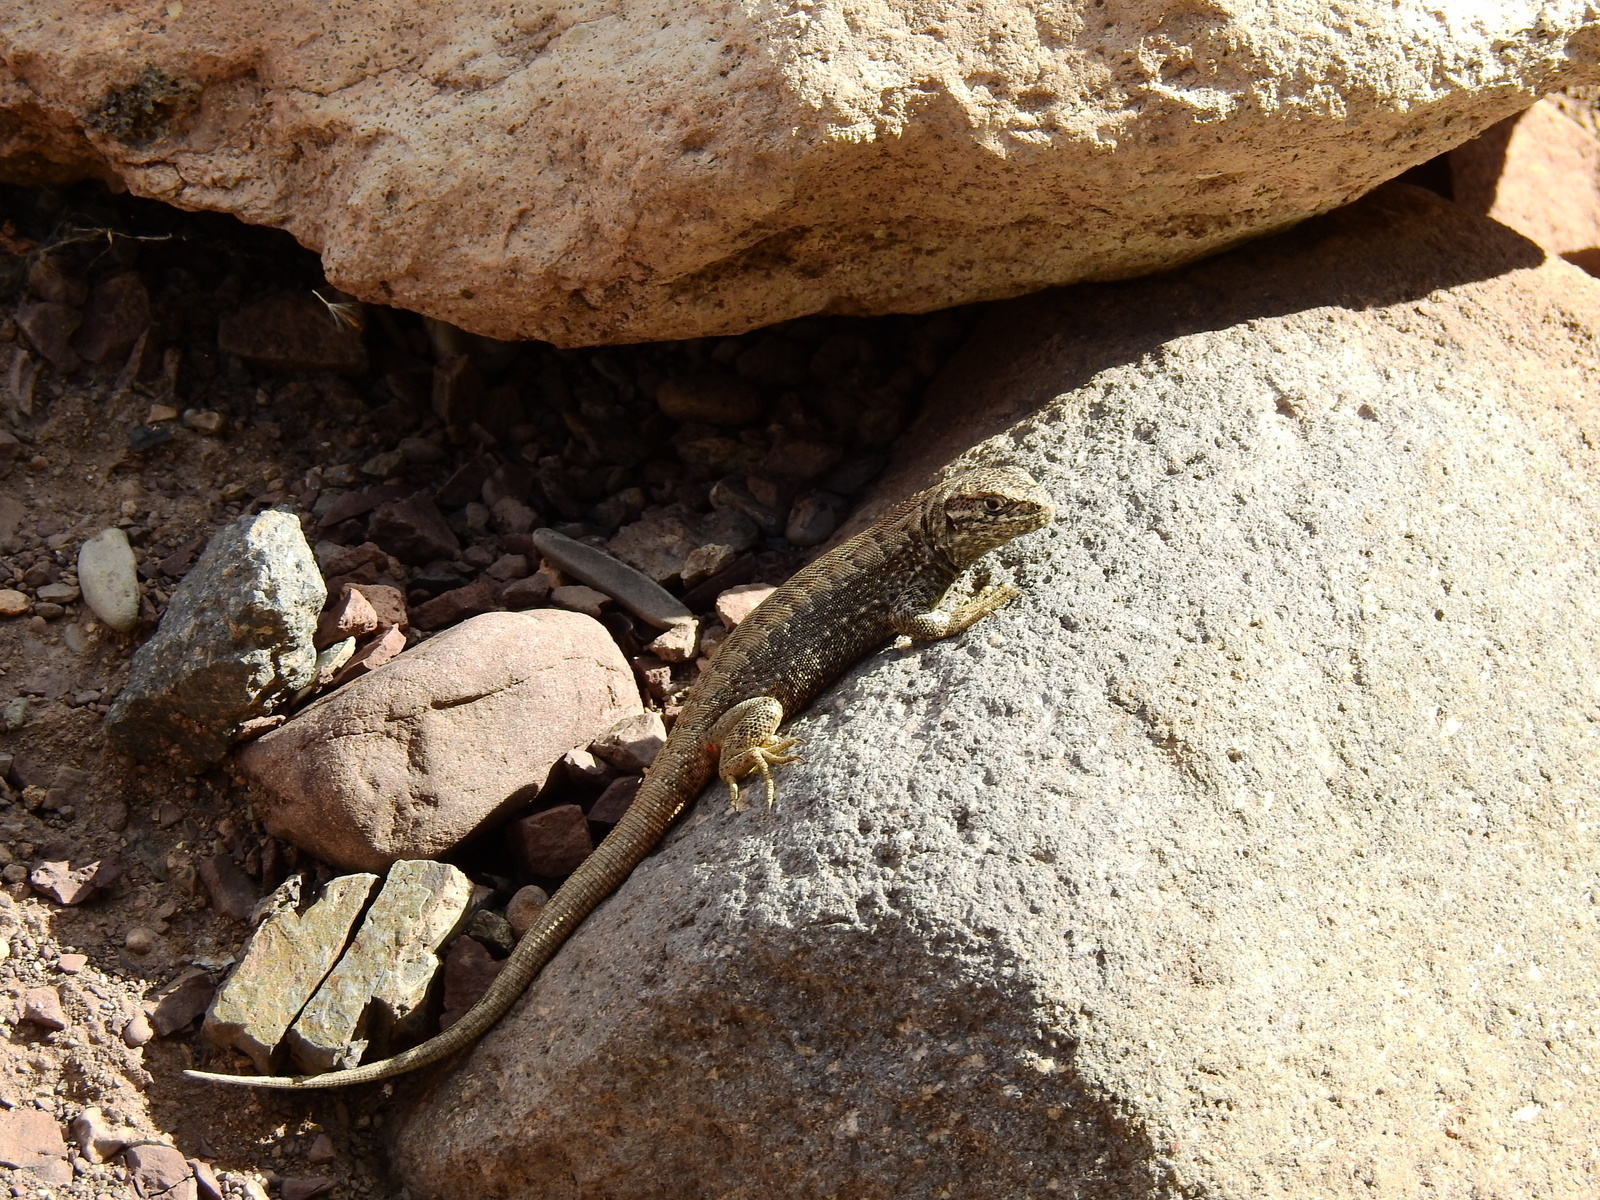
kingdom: Animalia
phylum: Chordata
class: Squamata
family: Liolaemidae
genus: Liolaemus
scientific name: Liolaemus buergeri
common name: Buerger's tree iguana
